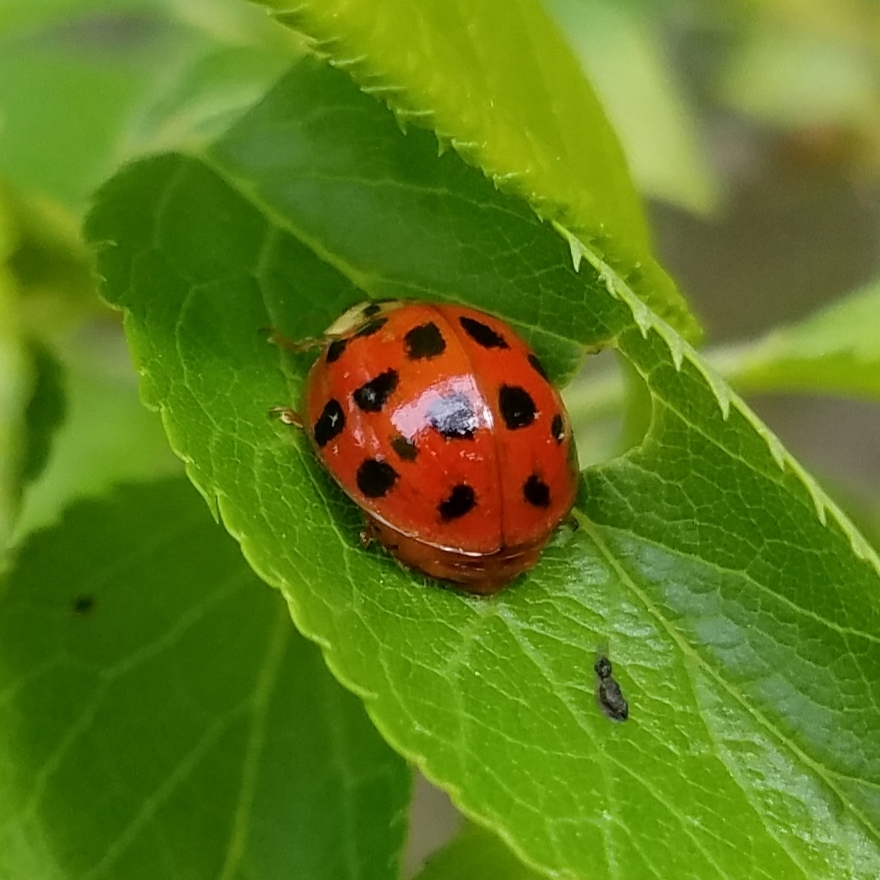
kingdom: Animalia
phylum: Arthropoda
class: Insecta
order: Coleoptera
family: Coccinellidae
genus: Harmonia
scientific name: Harmonia axyridis
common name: Harlequin ladybird
